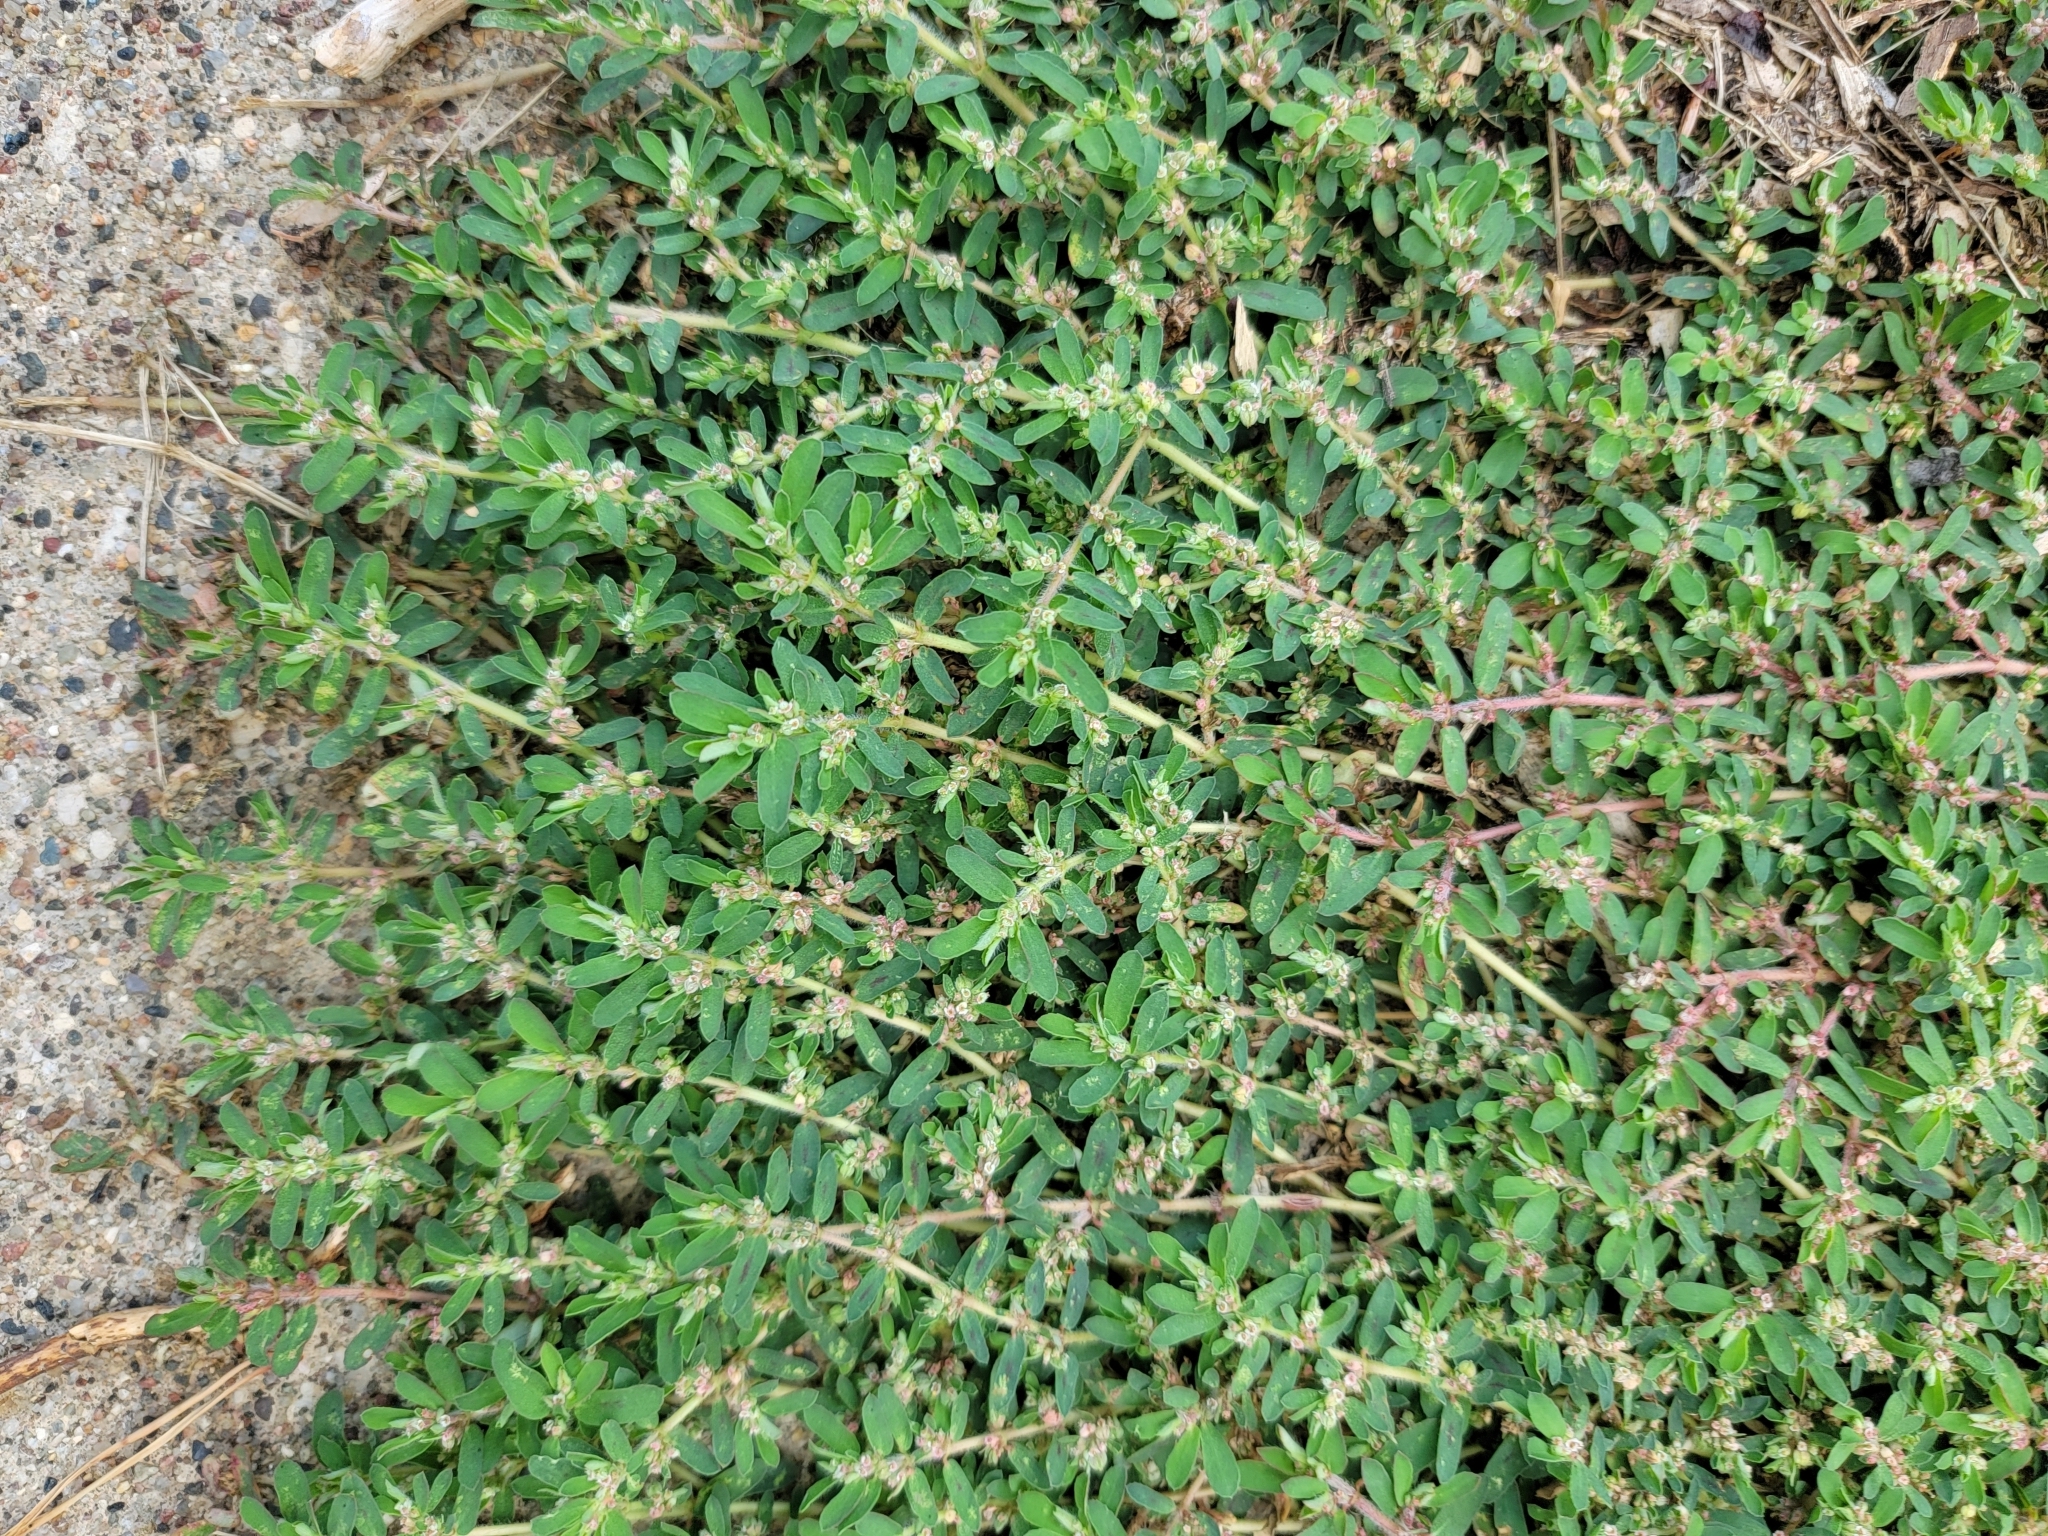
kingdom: Plantae
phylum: Tracheophyta
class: Magnoliopsida
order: Malpighiales
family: Euphorbiaceae
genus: Euphorbia
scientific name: Euphorbia maculata
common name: Spotted spurge
